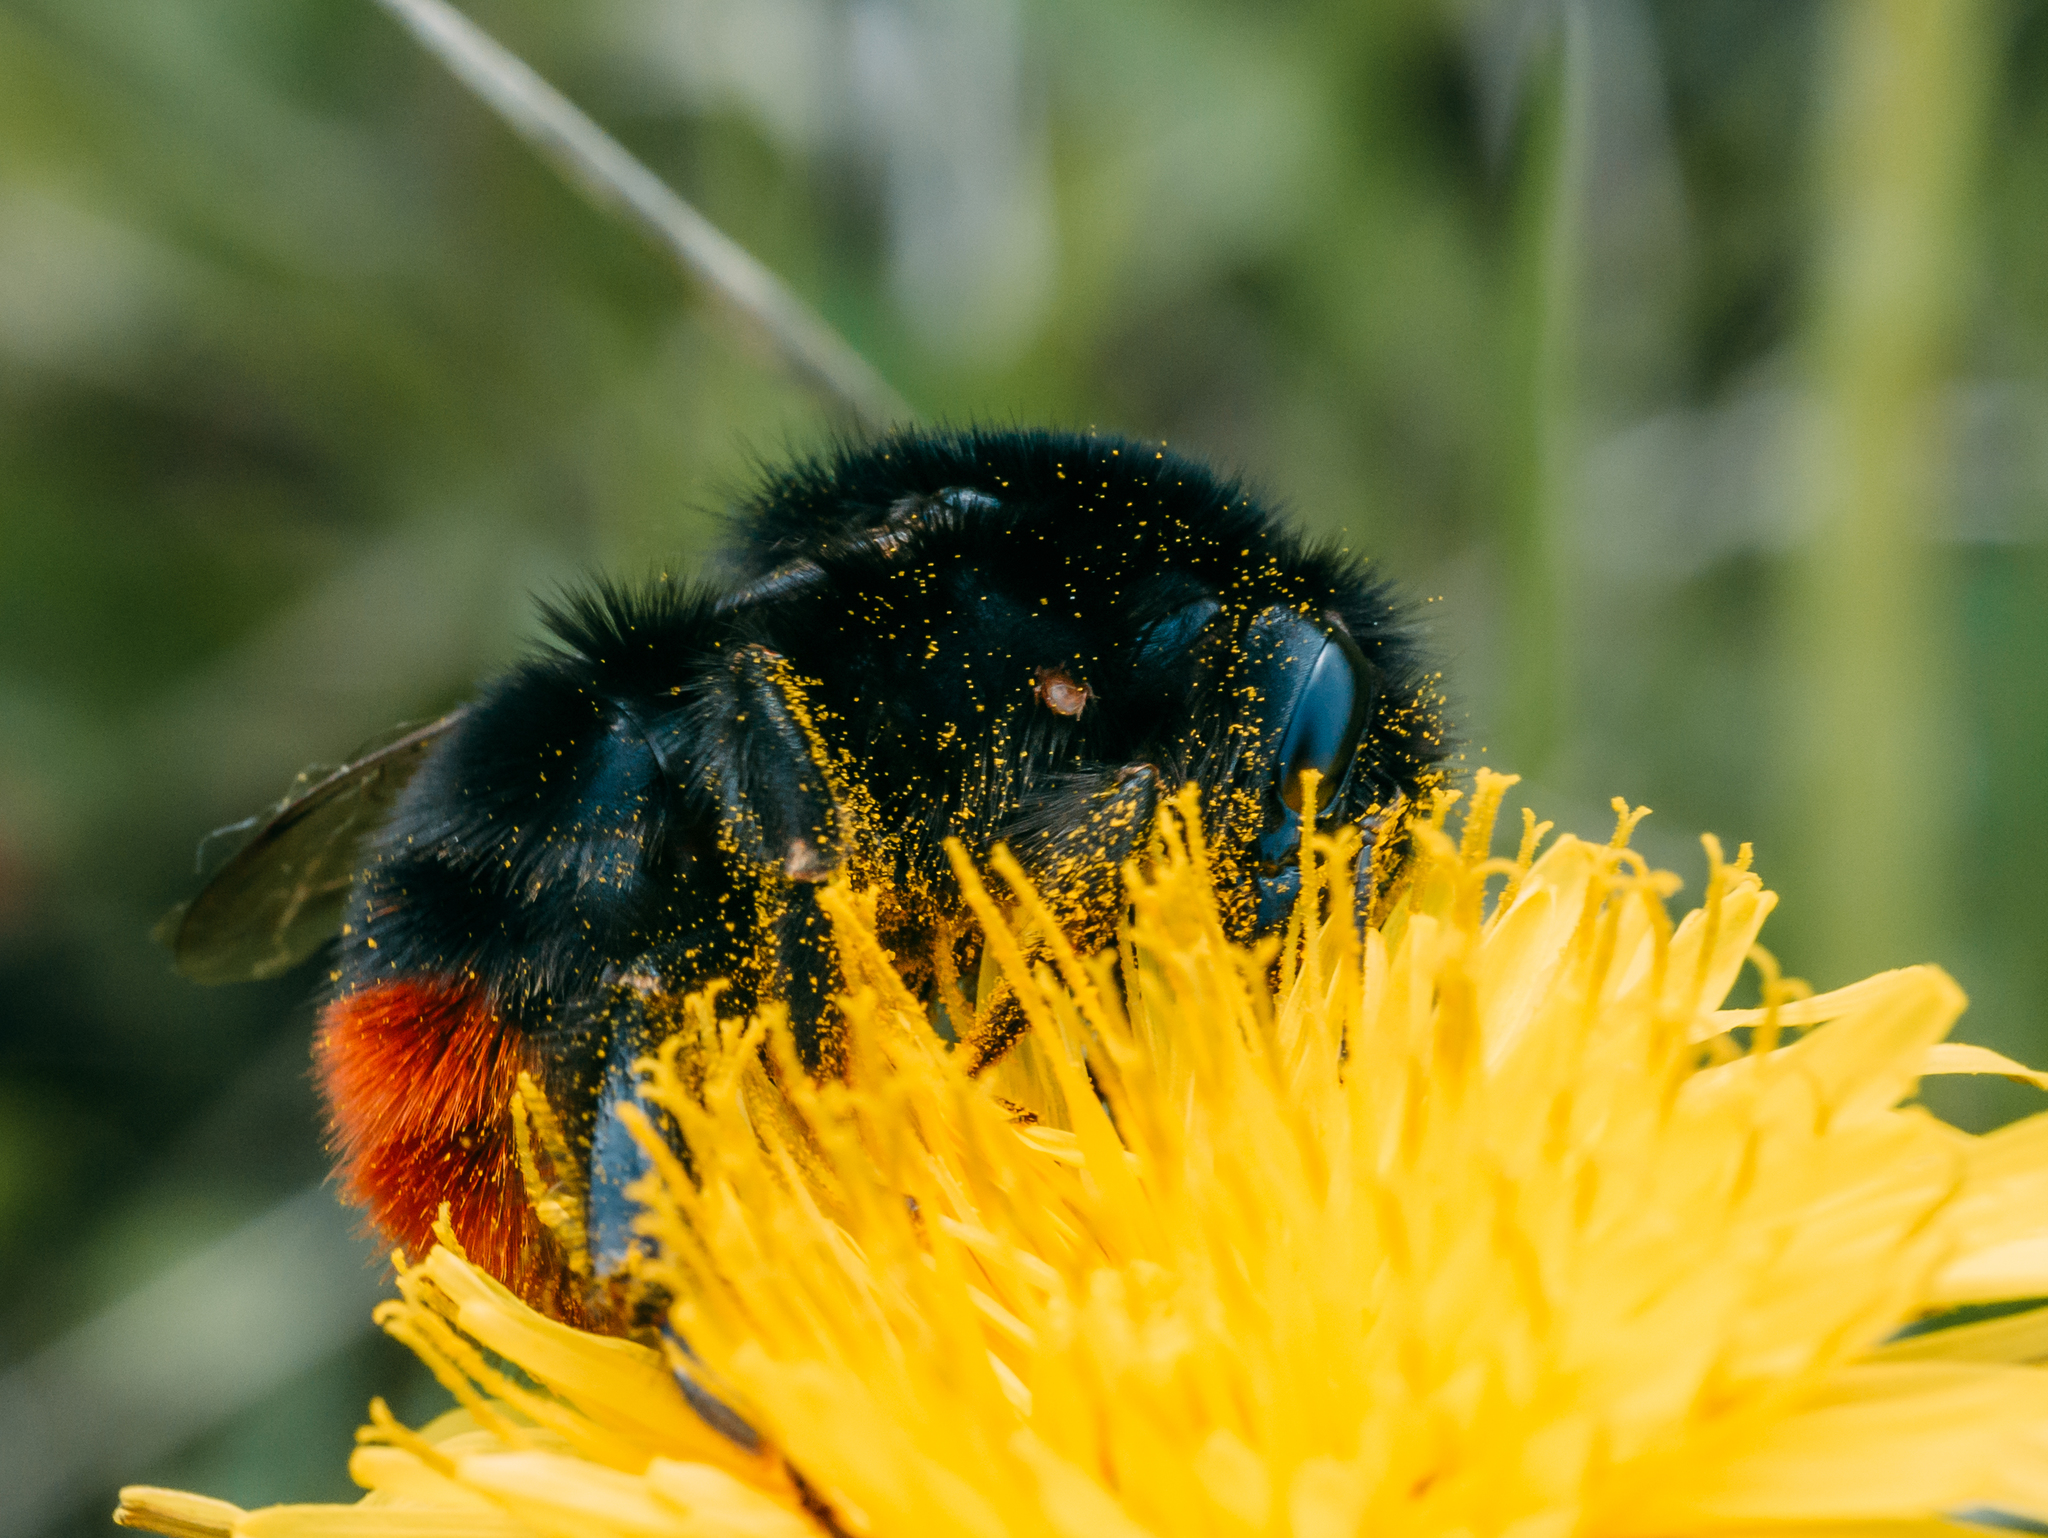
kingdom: Animalia
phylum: Arthropoda
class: Insecta
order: Hymenoptera
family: Apidae
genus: Bombus
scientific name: Bombus lapidarius
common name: Large red-tailed humble-bee
